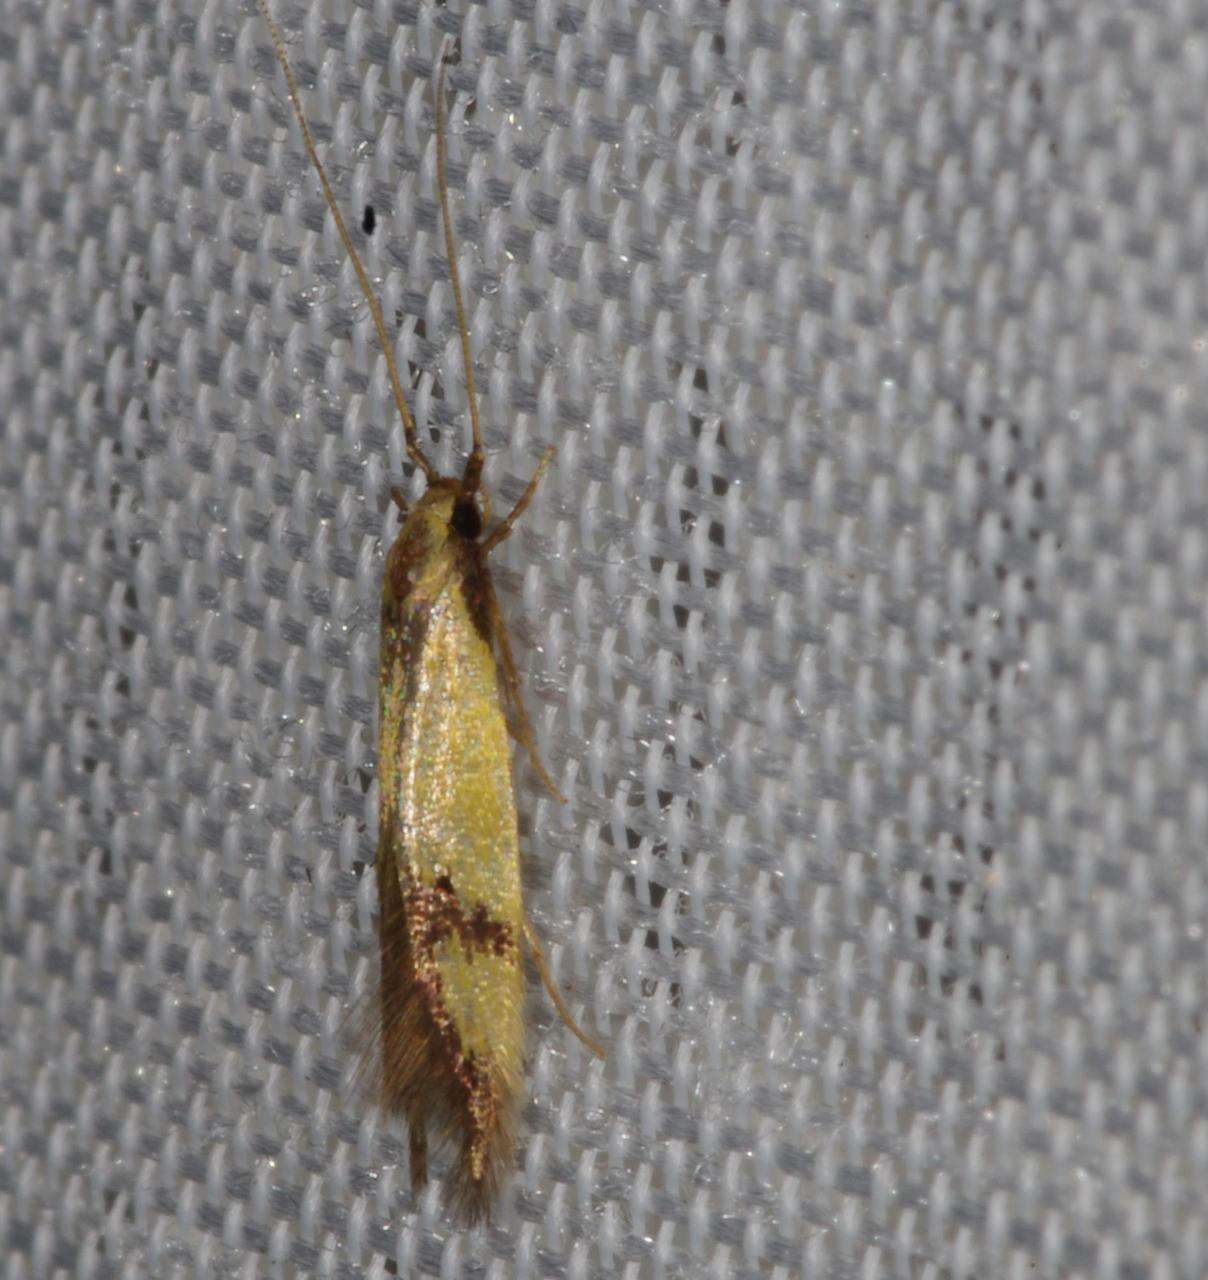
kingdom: Animalia
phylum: Arthropoda
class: Insecta
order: Lepidoptera
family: Tineidae
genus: Opogona
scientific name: Opogona stereodyta
